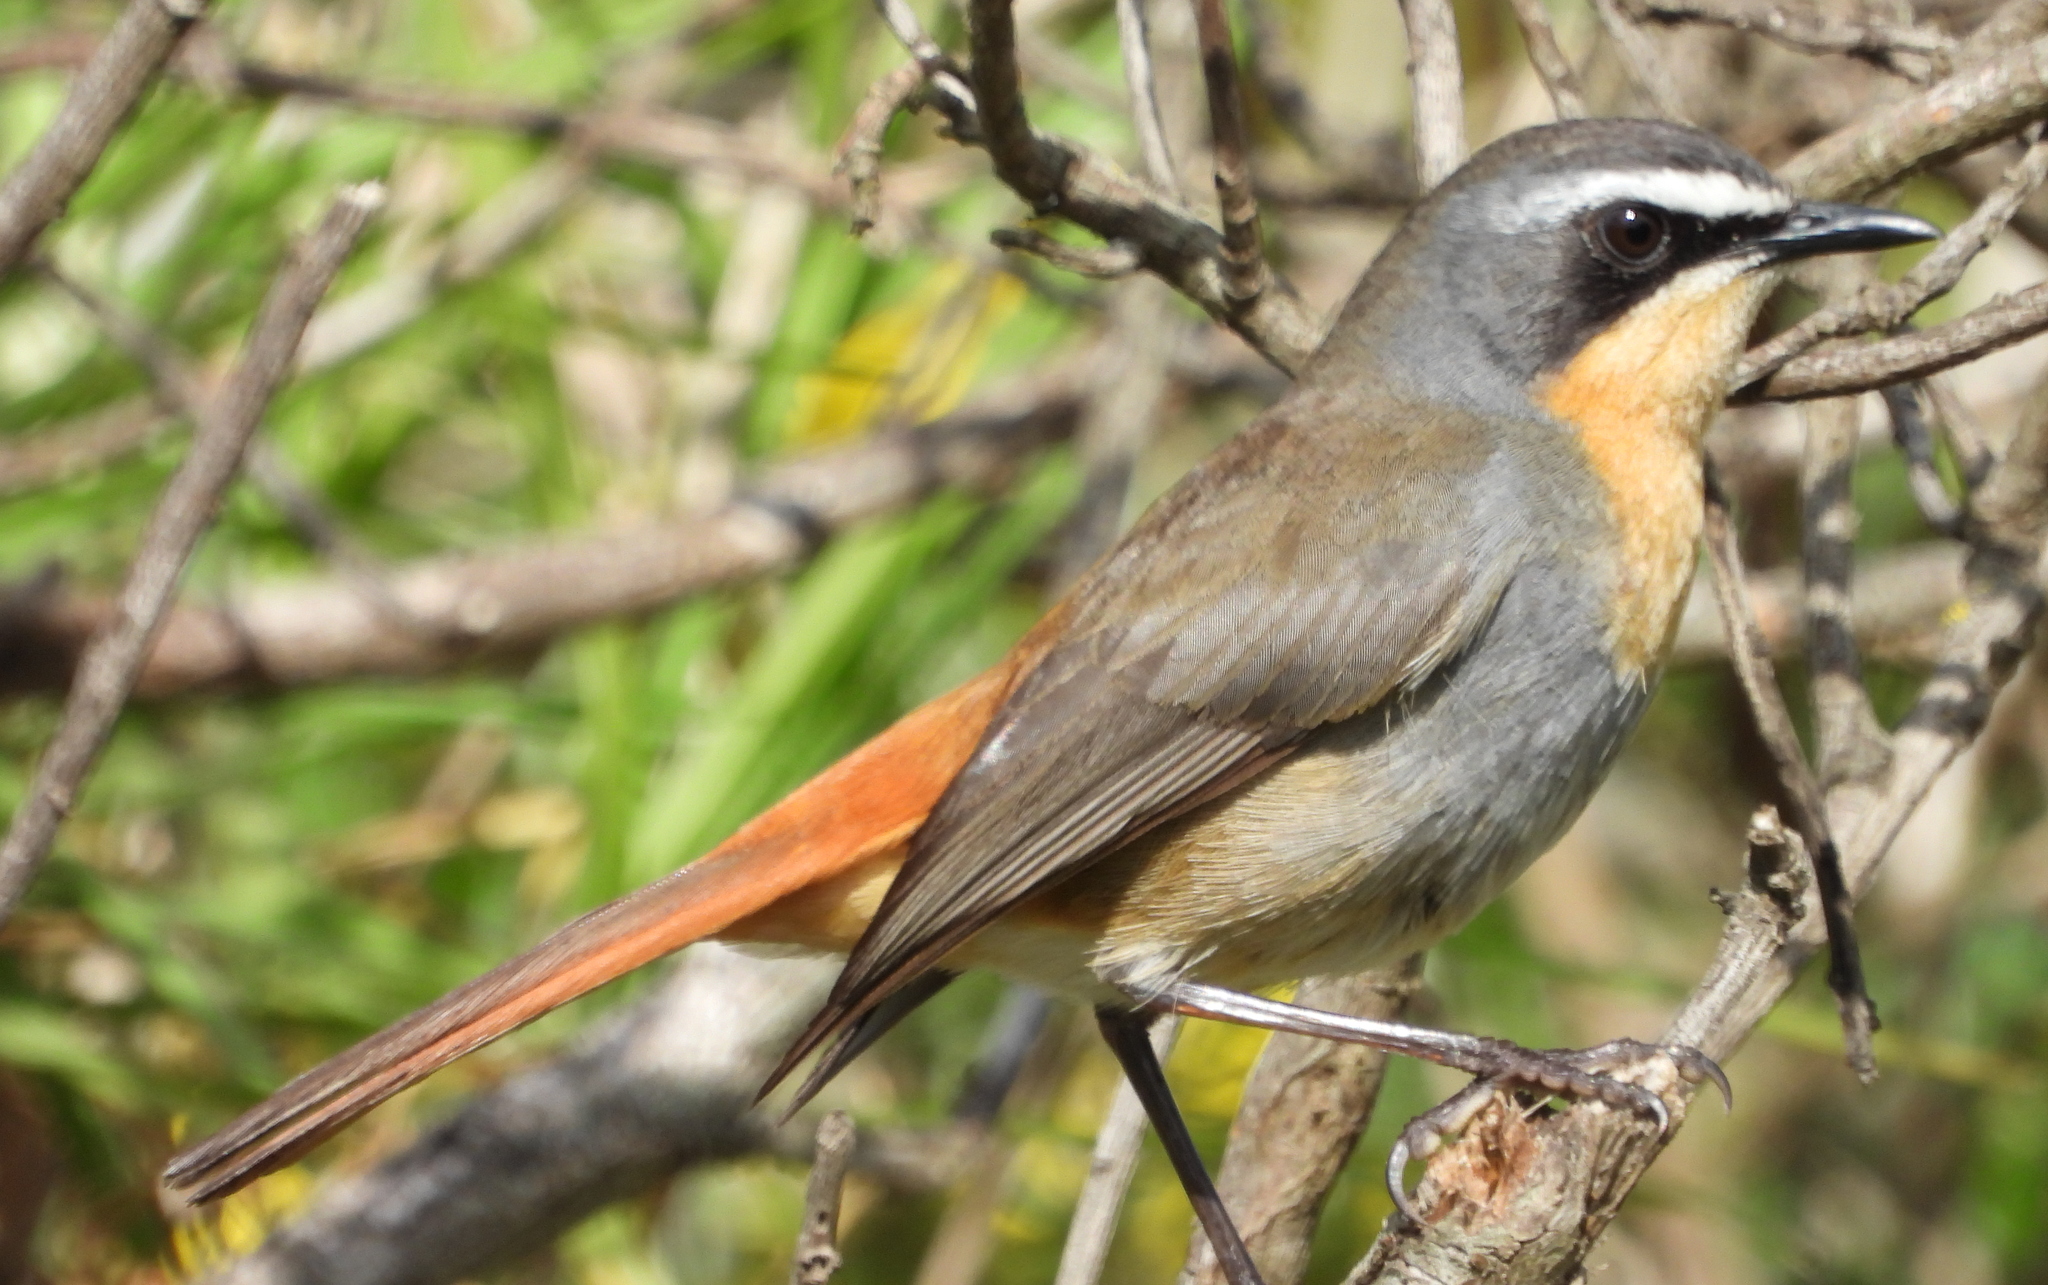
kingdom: Animalia
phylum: Chordata
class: Aves
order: Passeriformes
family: Muscicapidae
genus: Cossypha
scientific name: Cossypha caffra
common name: Cape robin-chat
